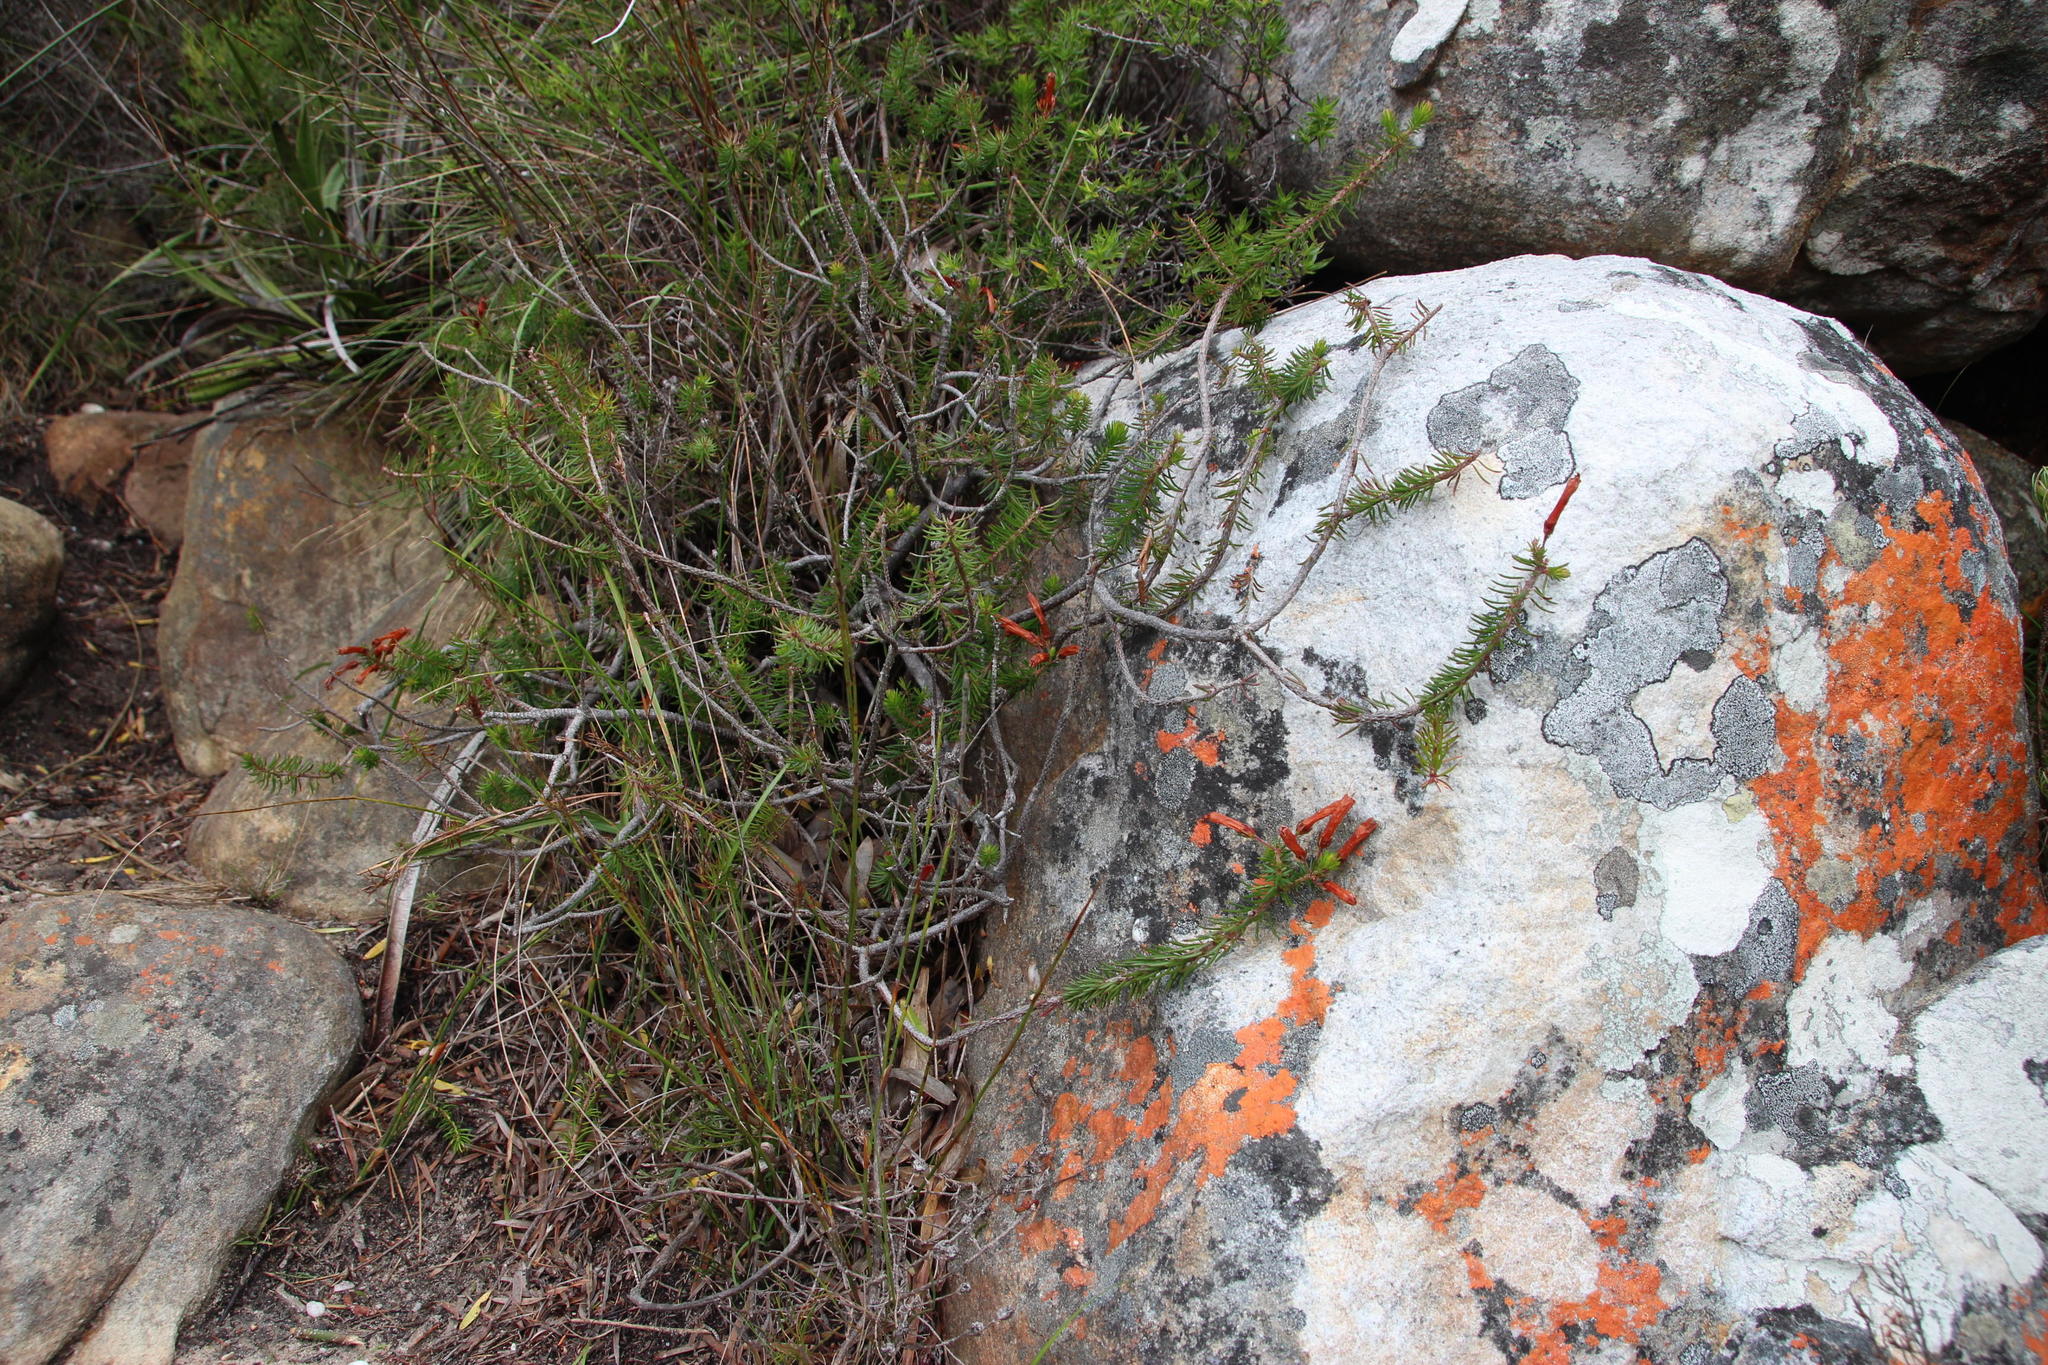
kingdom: Plantae
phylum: Tracheophyta
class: Magnoliopsida
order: Ericales
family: Ericaceae
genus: Erica
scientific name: Erica nevillei
